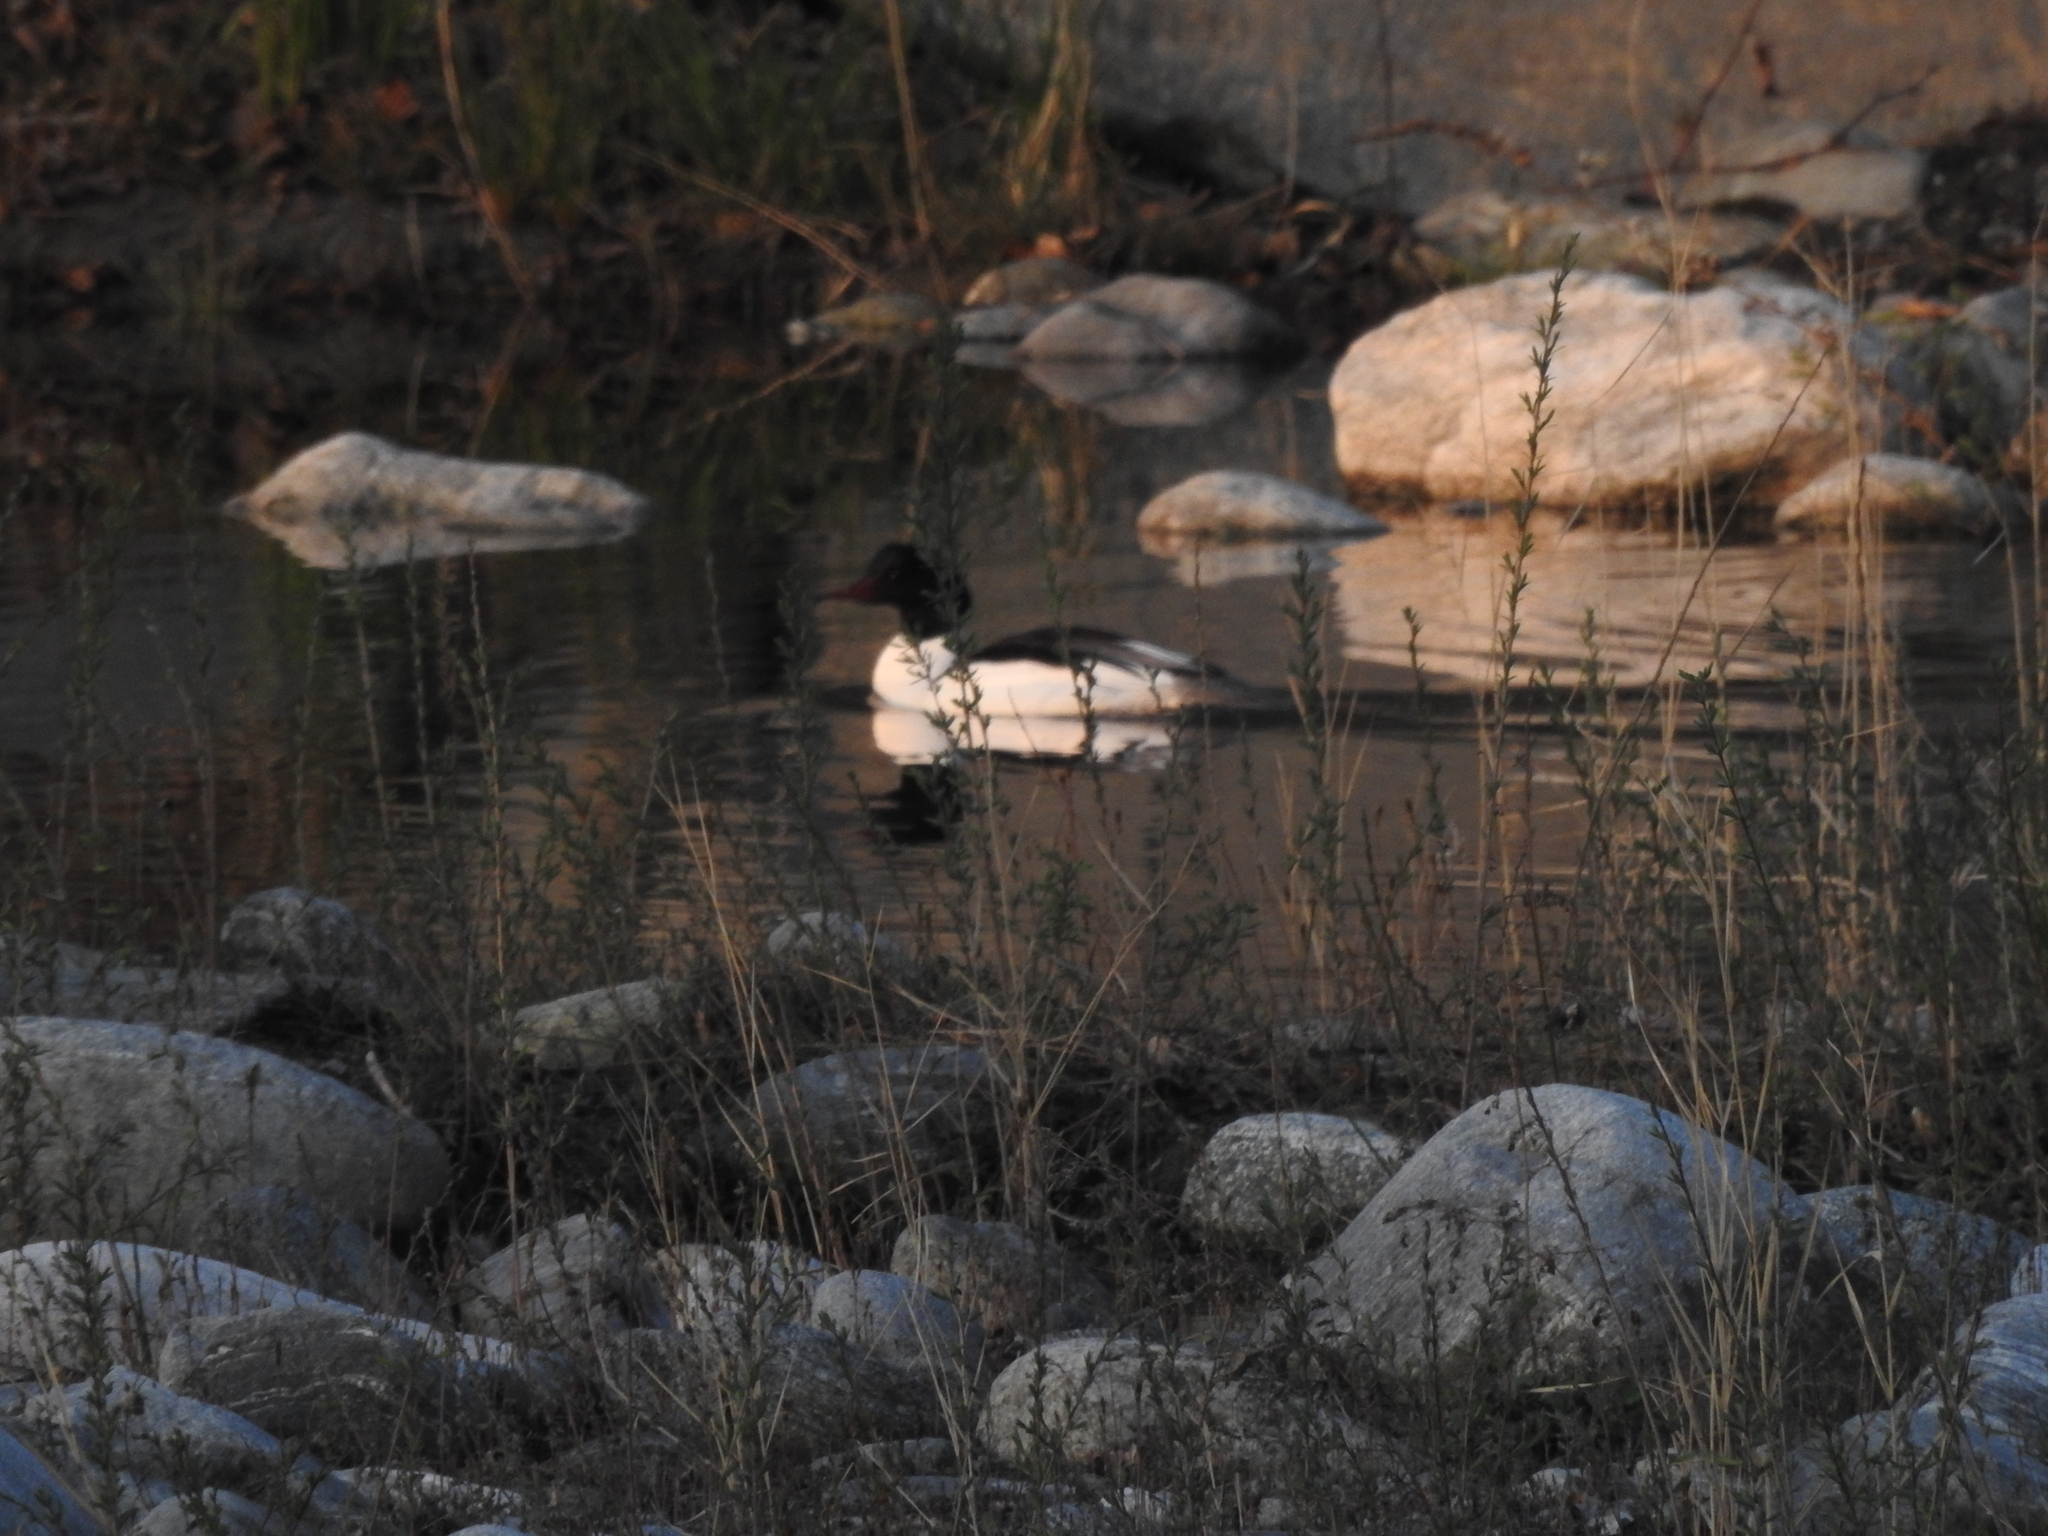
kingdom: Animalia
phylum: Chordata
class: Aves
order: Anseriformes
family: Anatidae
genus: Mergus
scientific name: Mergus merganser
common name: Common merganser
